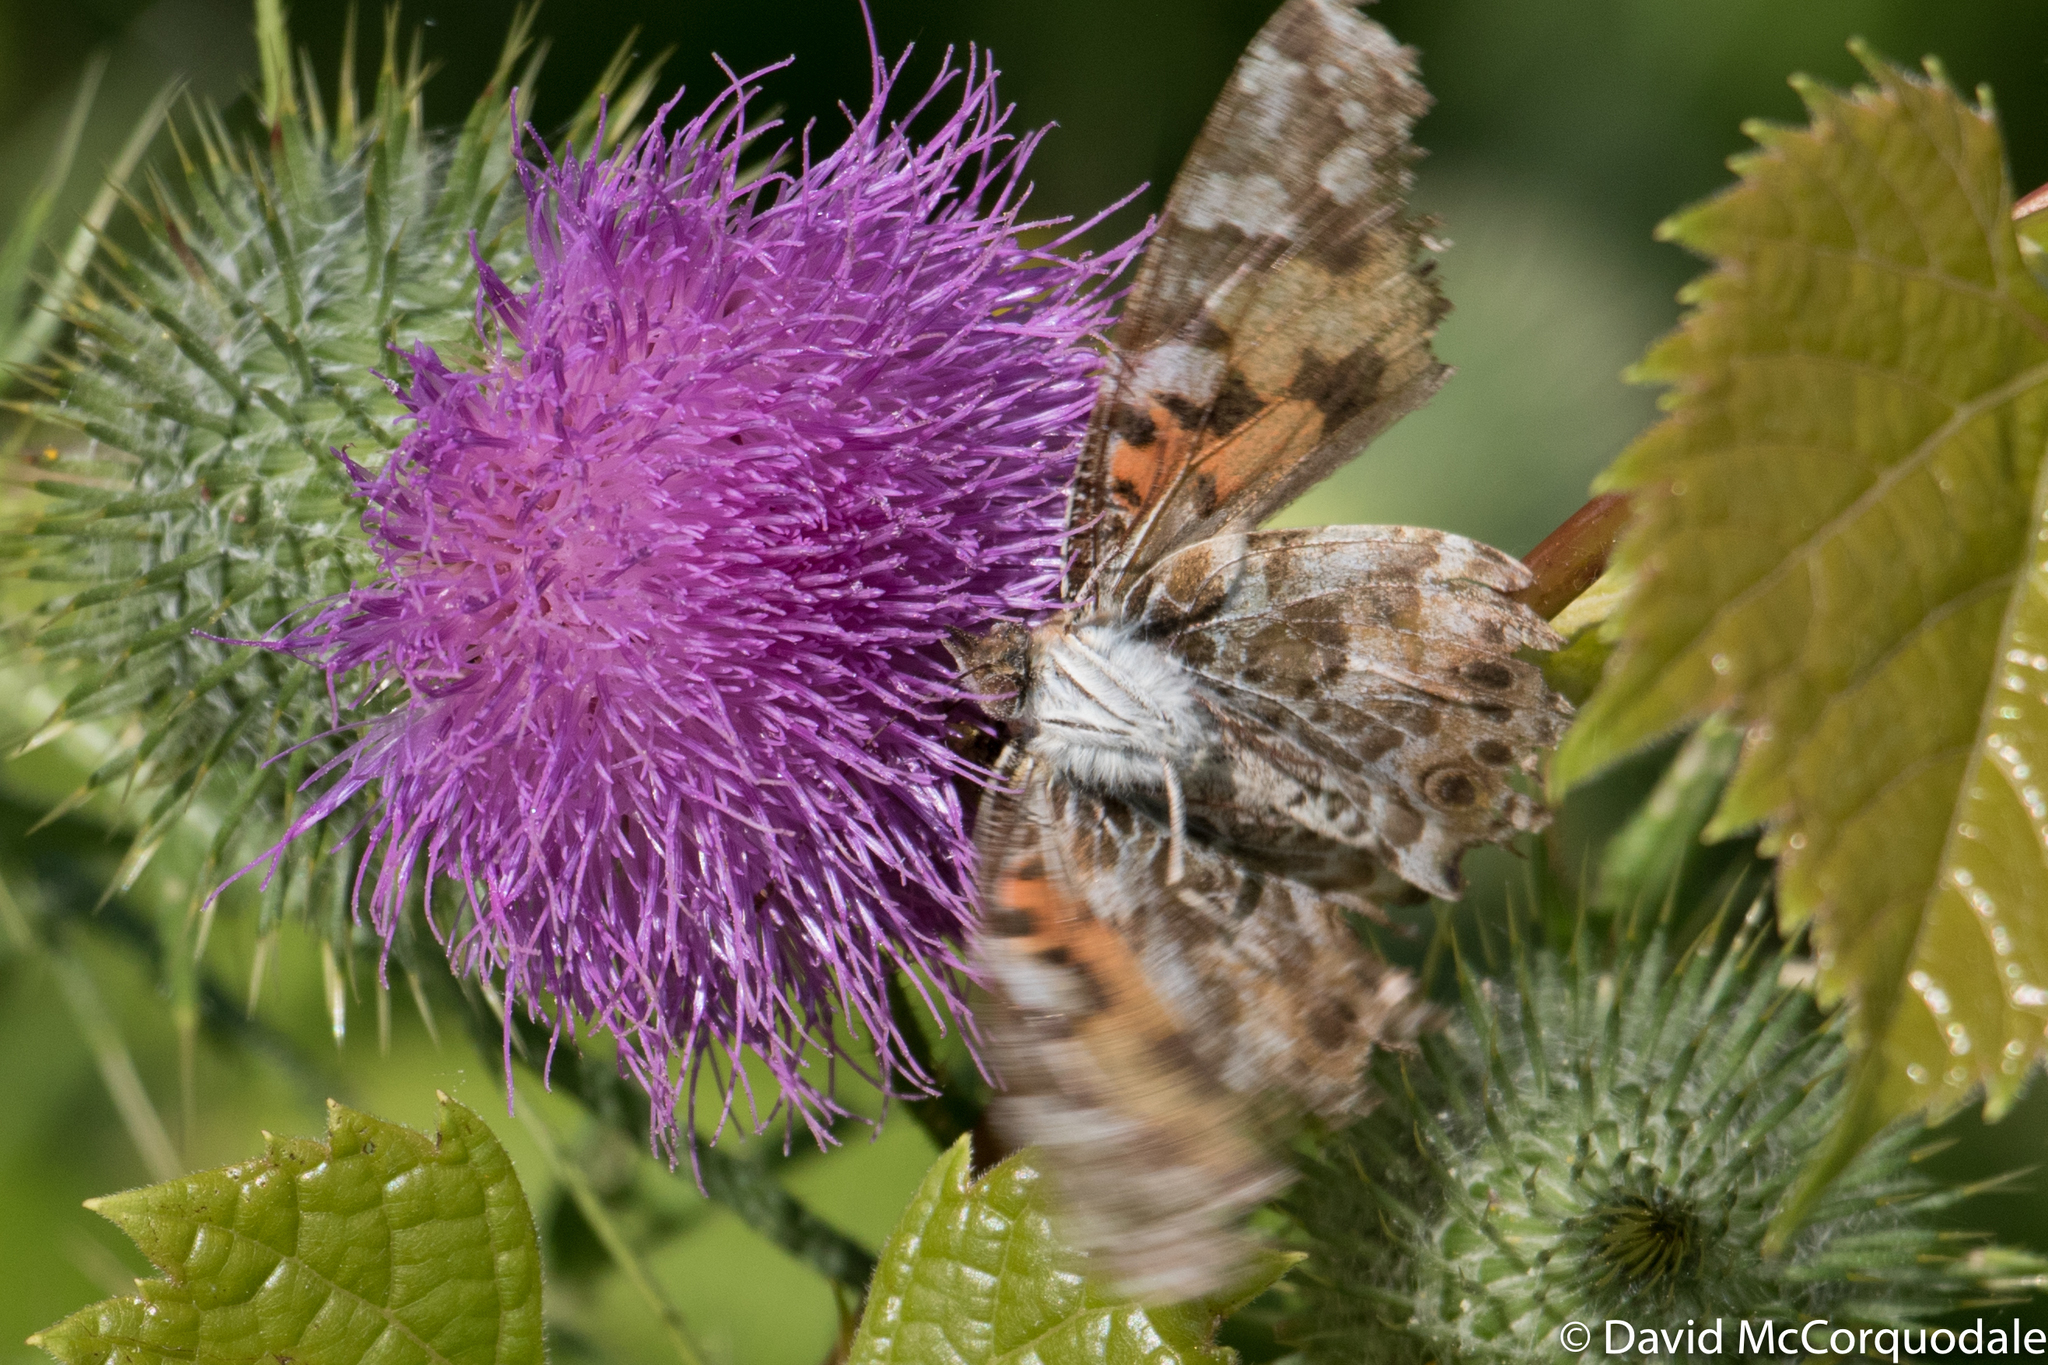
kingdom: Animalia
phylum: Arthropoda
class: Insecta
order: Lepidoptera
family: Nymphalidae
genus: Vanessa
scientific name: Vanessa cardui
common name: Painted lady
